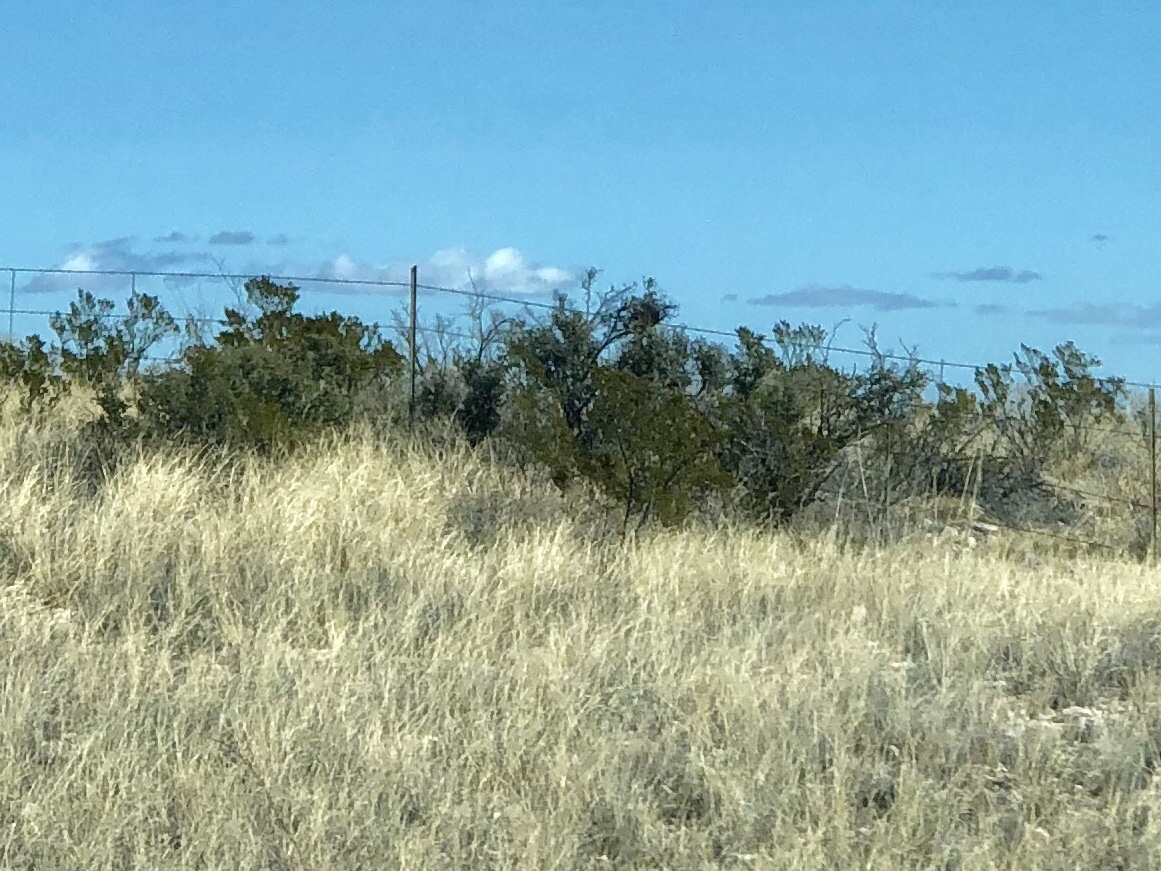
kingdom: Plantae
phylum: Tracheophyta
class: Magnoliopsida
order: Zygophyllales
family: Zygophyllaceae
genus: Larrea
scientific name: Larrea tridentata
